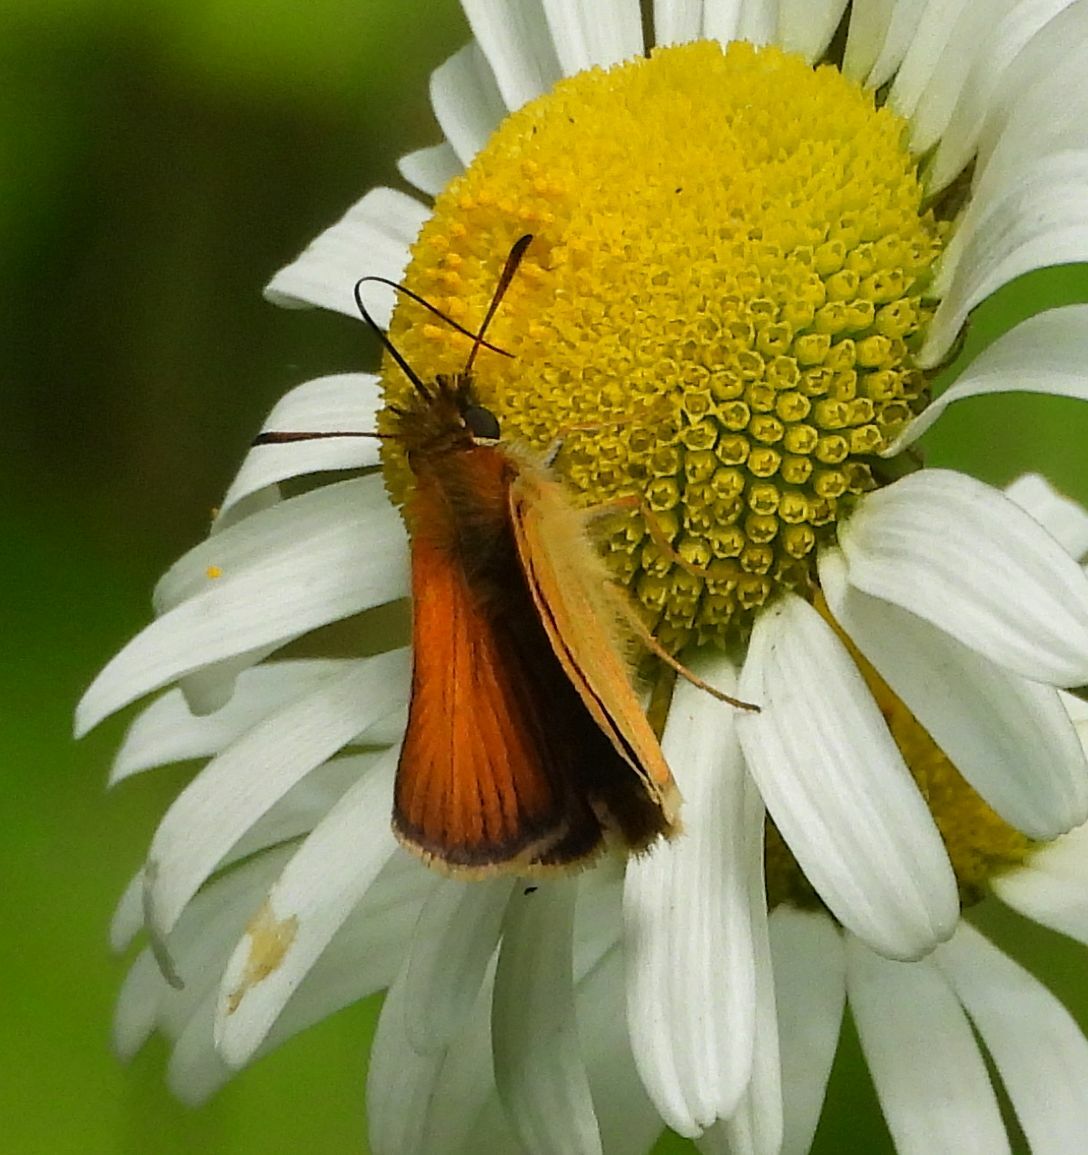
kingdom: Animalia
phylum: Arthropoda
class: Insecta
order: Lepidoptera
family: Hesperiidae
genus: Thymelicus
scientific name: Thymelicus lineola
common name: Essex skipper
